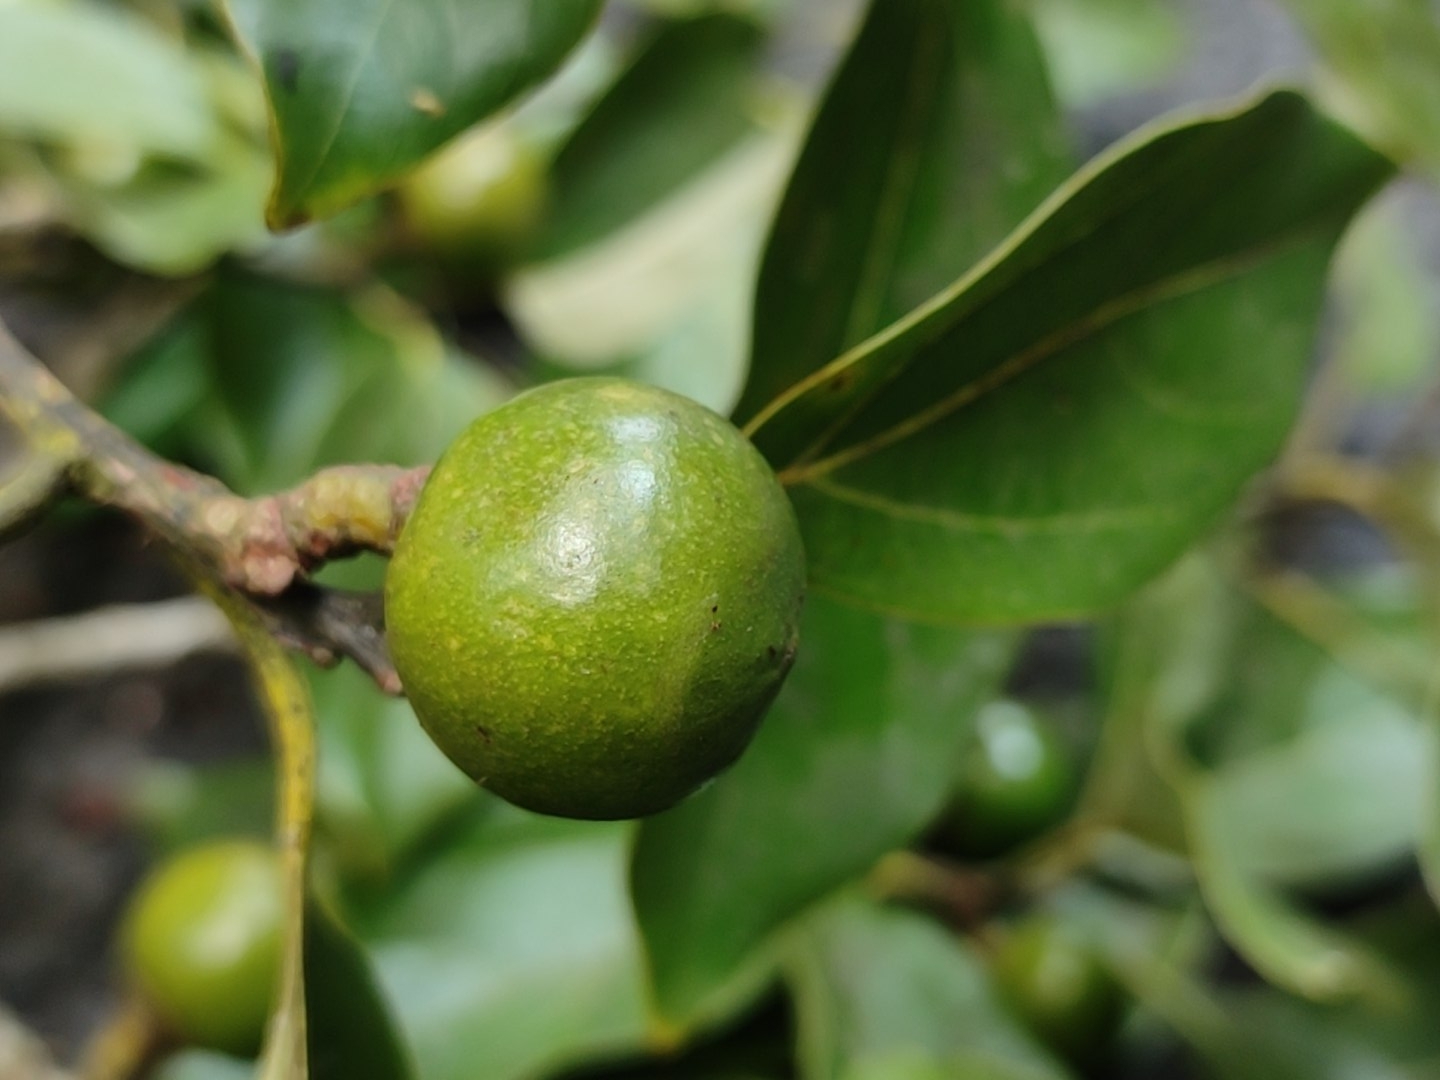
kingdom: Plantae
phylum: Tracheophyta
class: Magnoliopsida
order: Laurales
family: Lauraceae
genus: Neolitsea
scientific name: Neolitsea foliosa
